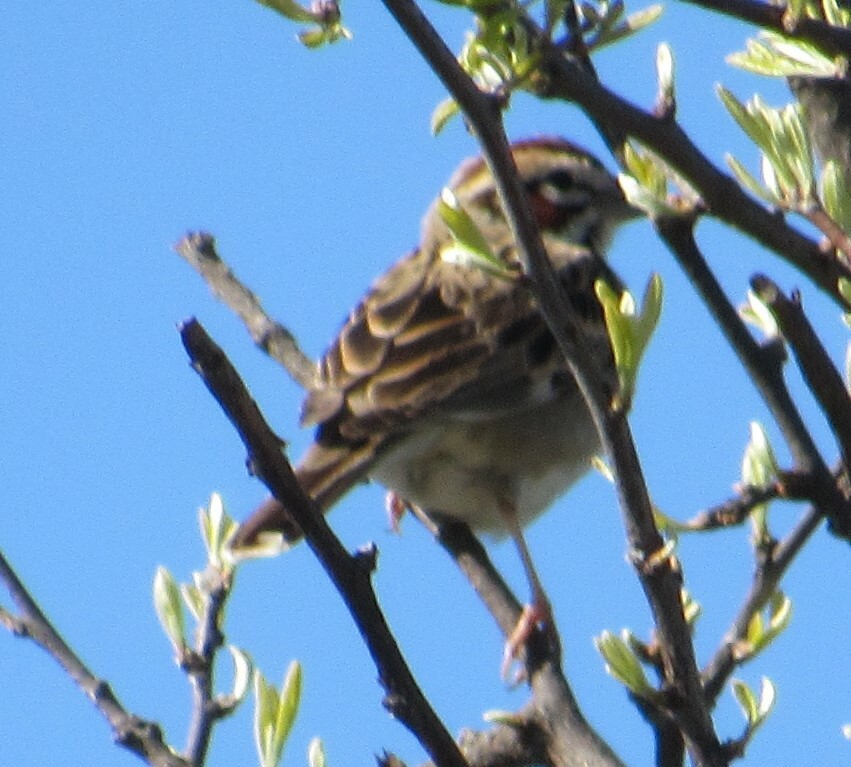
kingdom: Animalia
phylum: Chordata
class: Aves
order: Passeriformes
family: Passerellidae
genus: Chondestes
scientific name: Chondestes grammacus
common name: Lark sparrow
